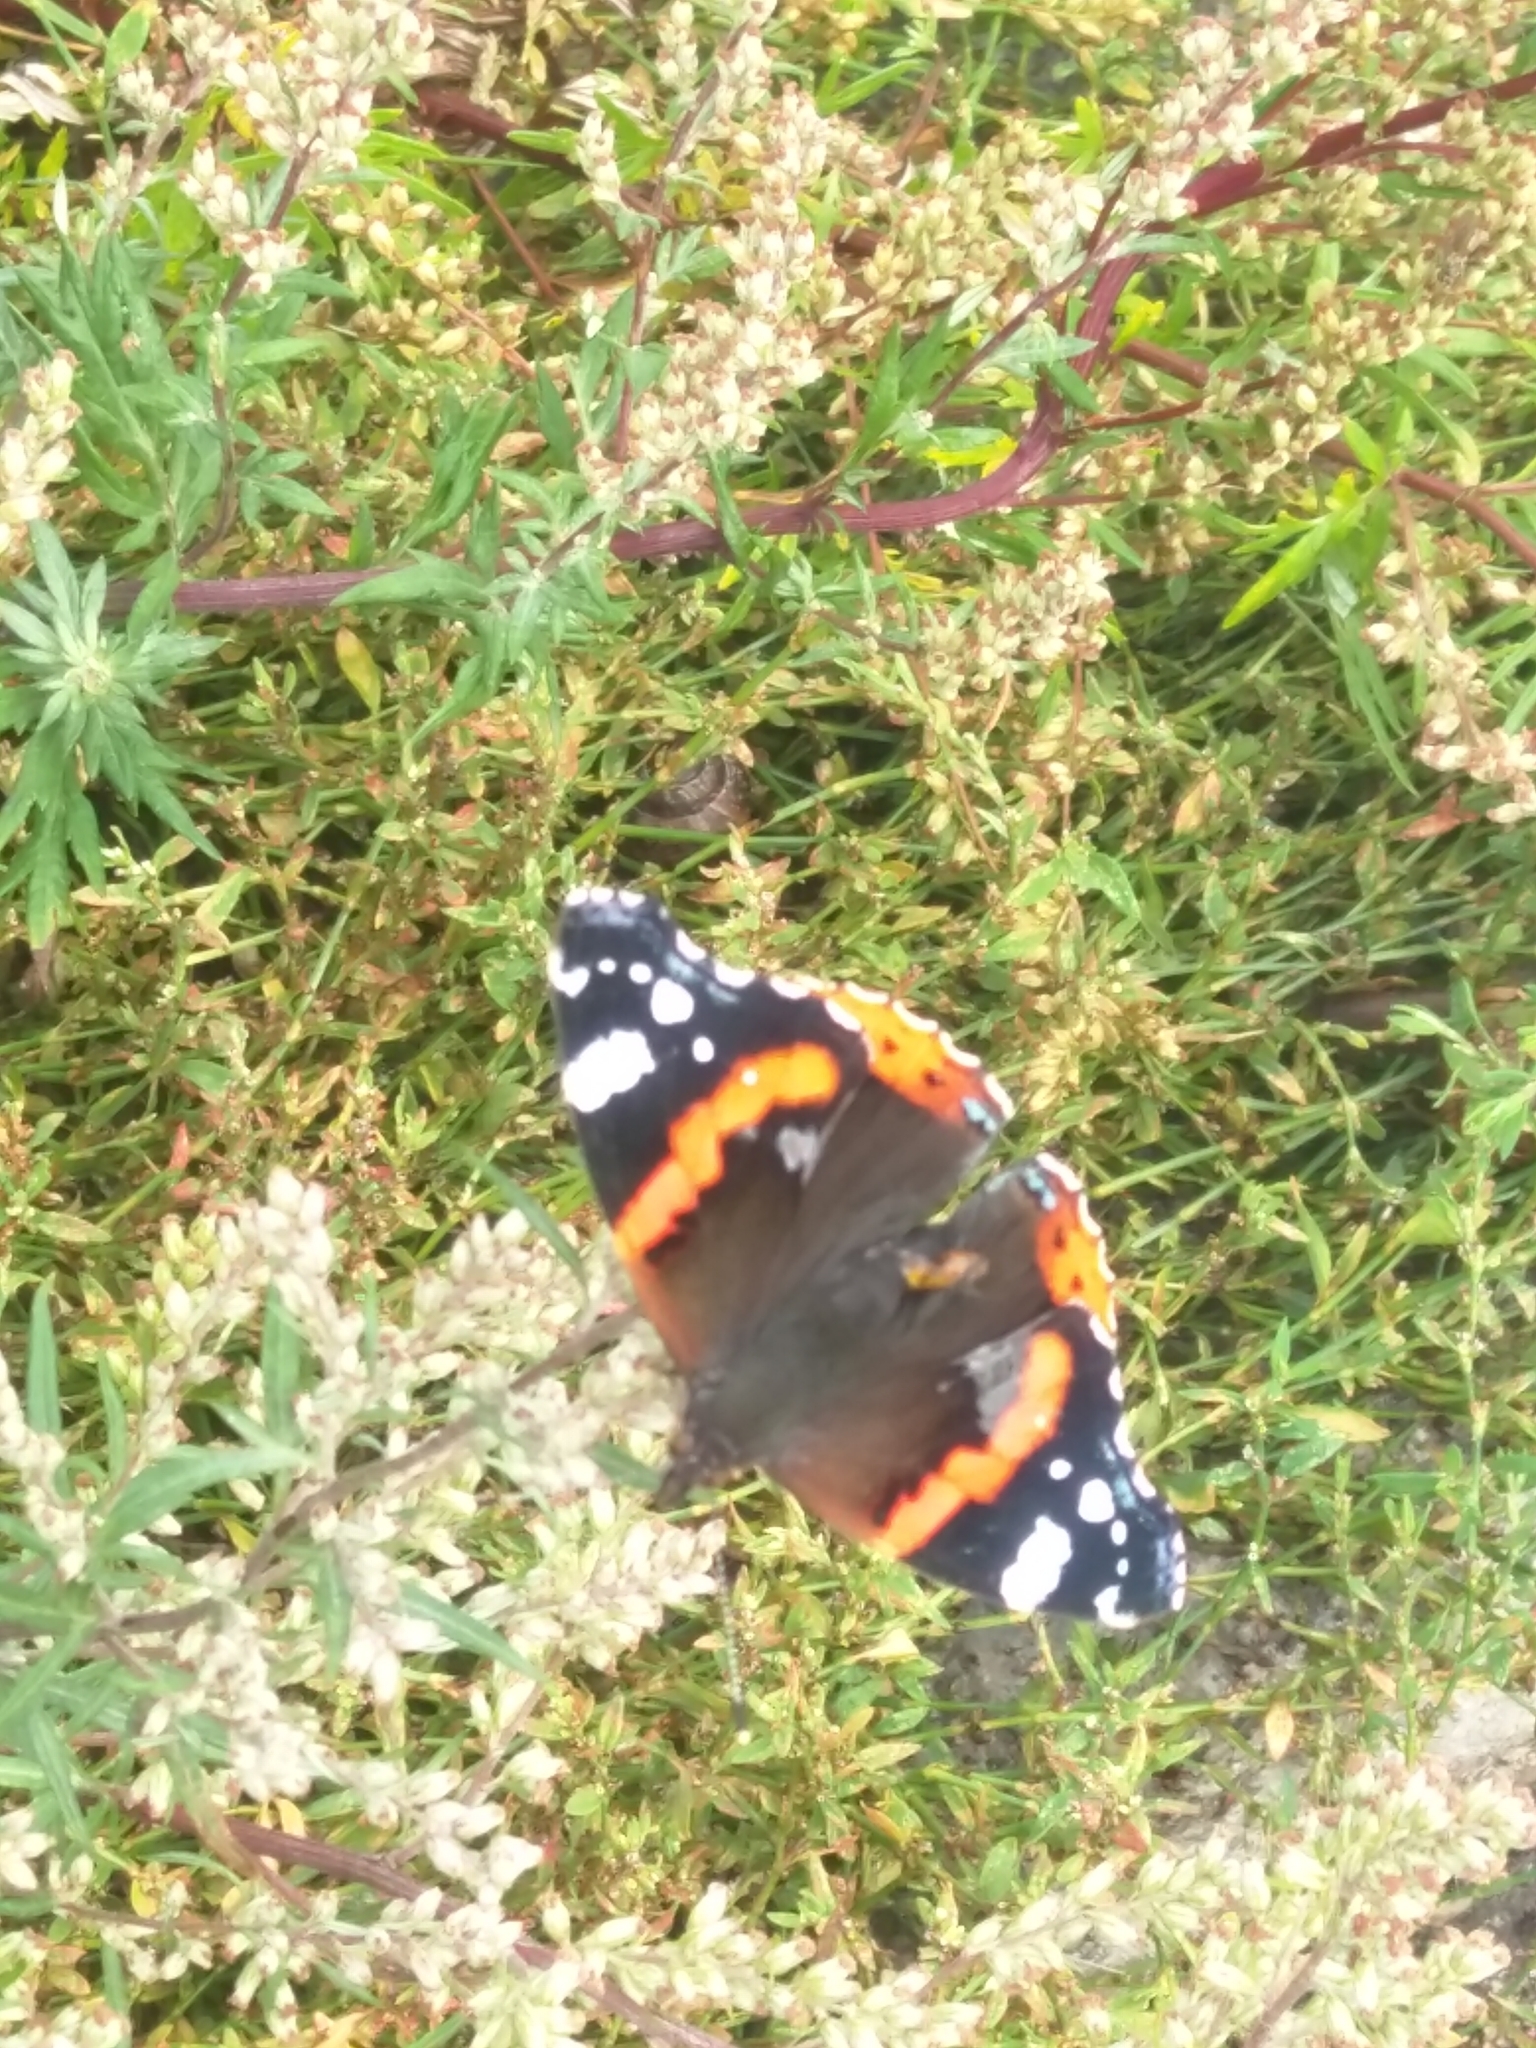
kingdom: Animalia
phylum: Arthropoda
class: Insecta
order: Lepidoptera
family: Nymphalidae
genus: Vanessa
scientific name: Vanessa atalanta
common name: Red admiral
